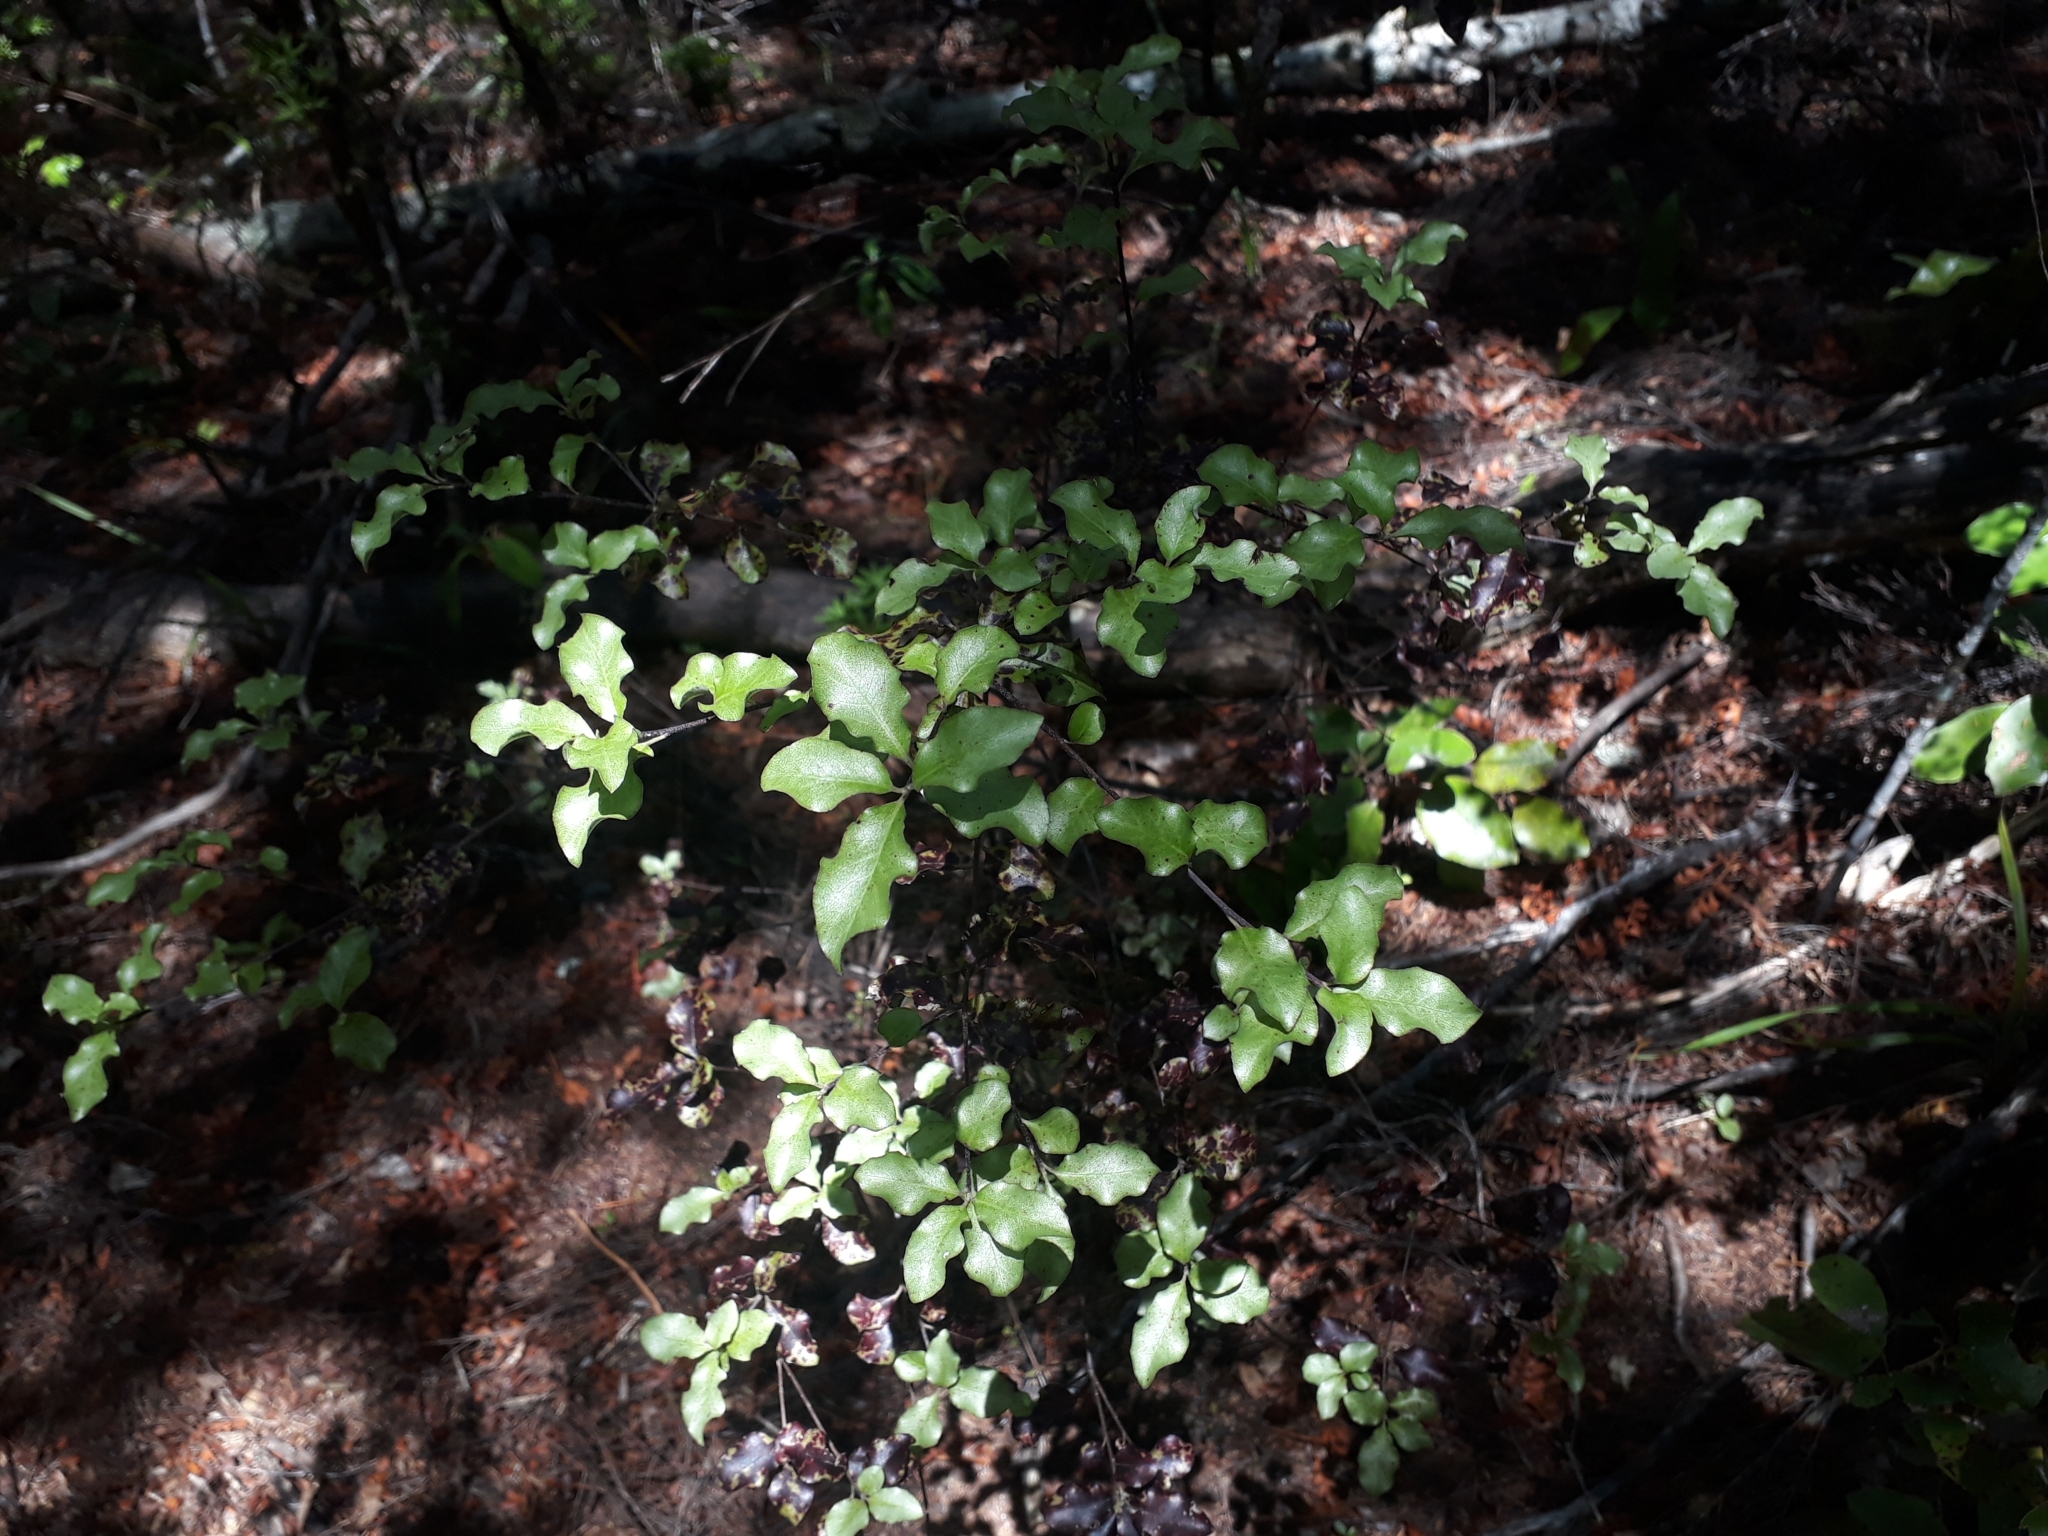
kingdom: Plantae
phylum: Tracheophyta
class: Magnoliopsida
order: Apiales
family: Pittosporaceae
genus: Pittosporum
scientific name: Pittosporum tenuifolium
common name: Kohuhu
